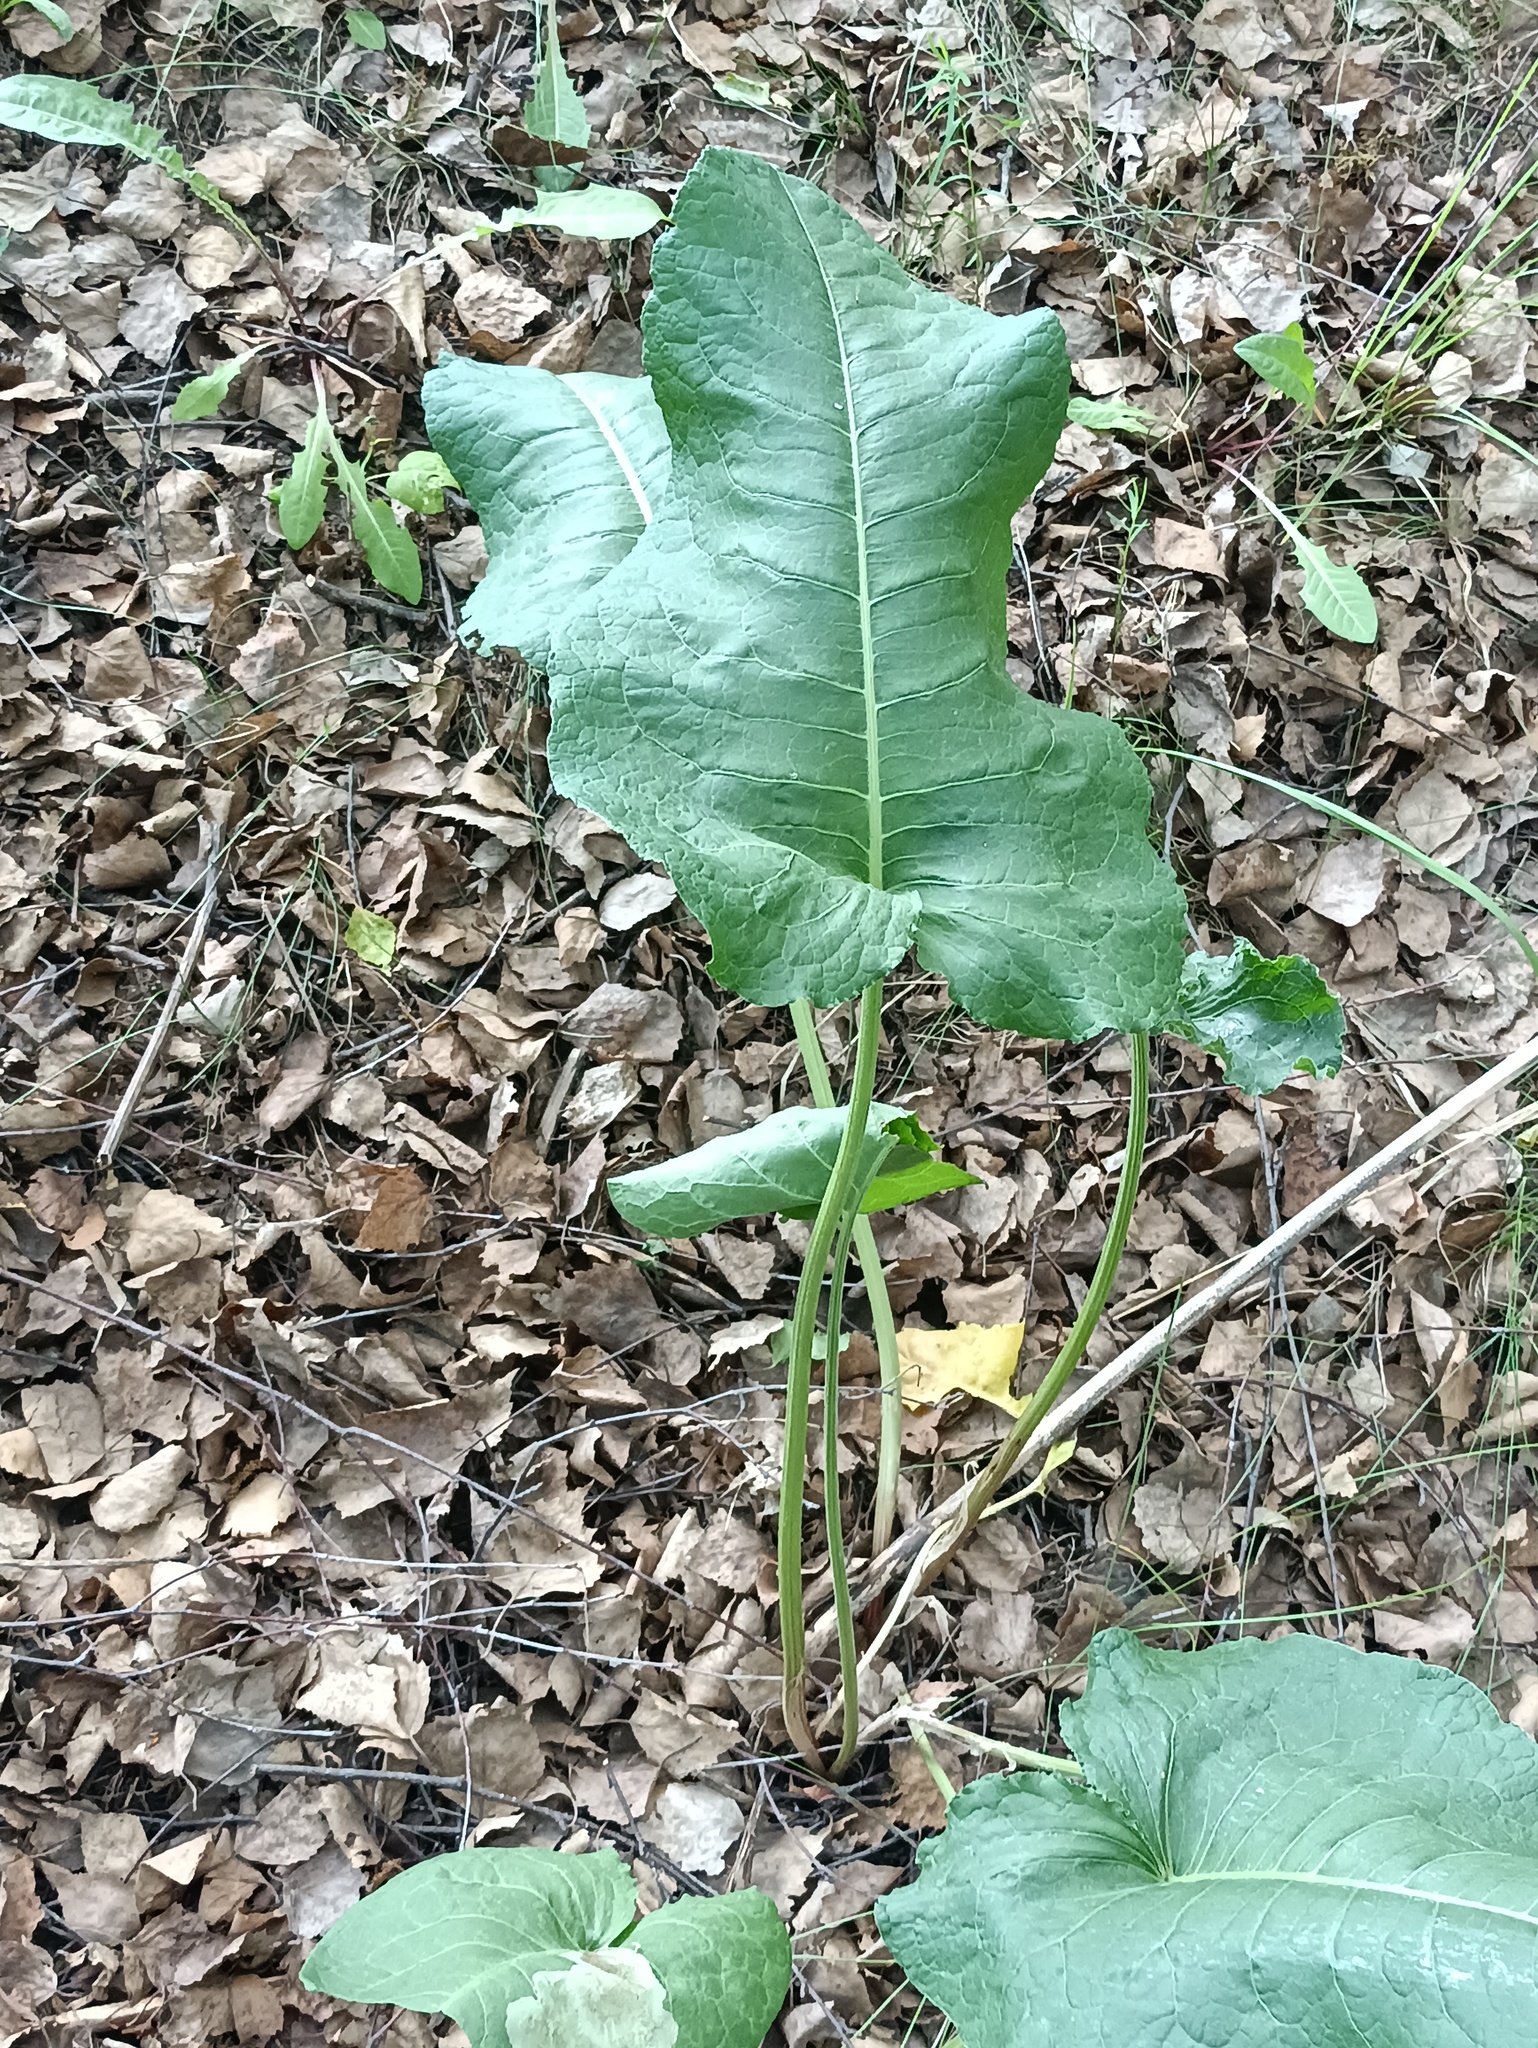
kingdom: Plantae
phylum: Tracheophyta
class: Magnoliopsida
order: Caryophyllales
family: Polygonaceae
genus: Rumex
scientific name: Rumex confertus
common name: Russian dock
